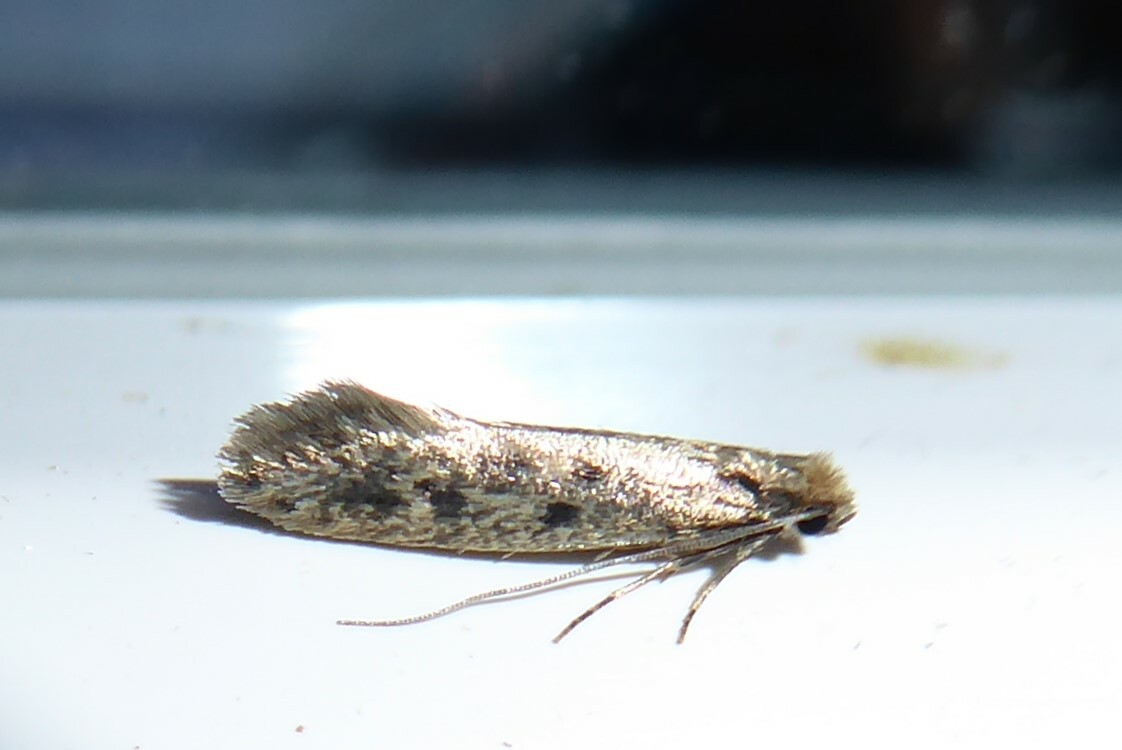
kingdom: Animalia
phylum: Arthropoda
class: Insecta
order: Lepidoptera
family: Tineidae
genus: Tinea
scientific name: Tinea pallescentella
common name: Large pale clothes moth
